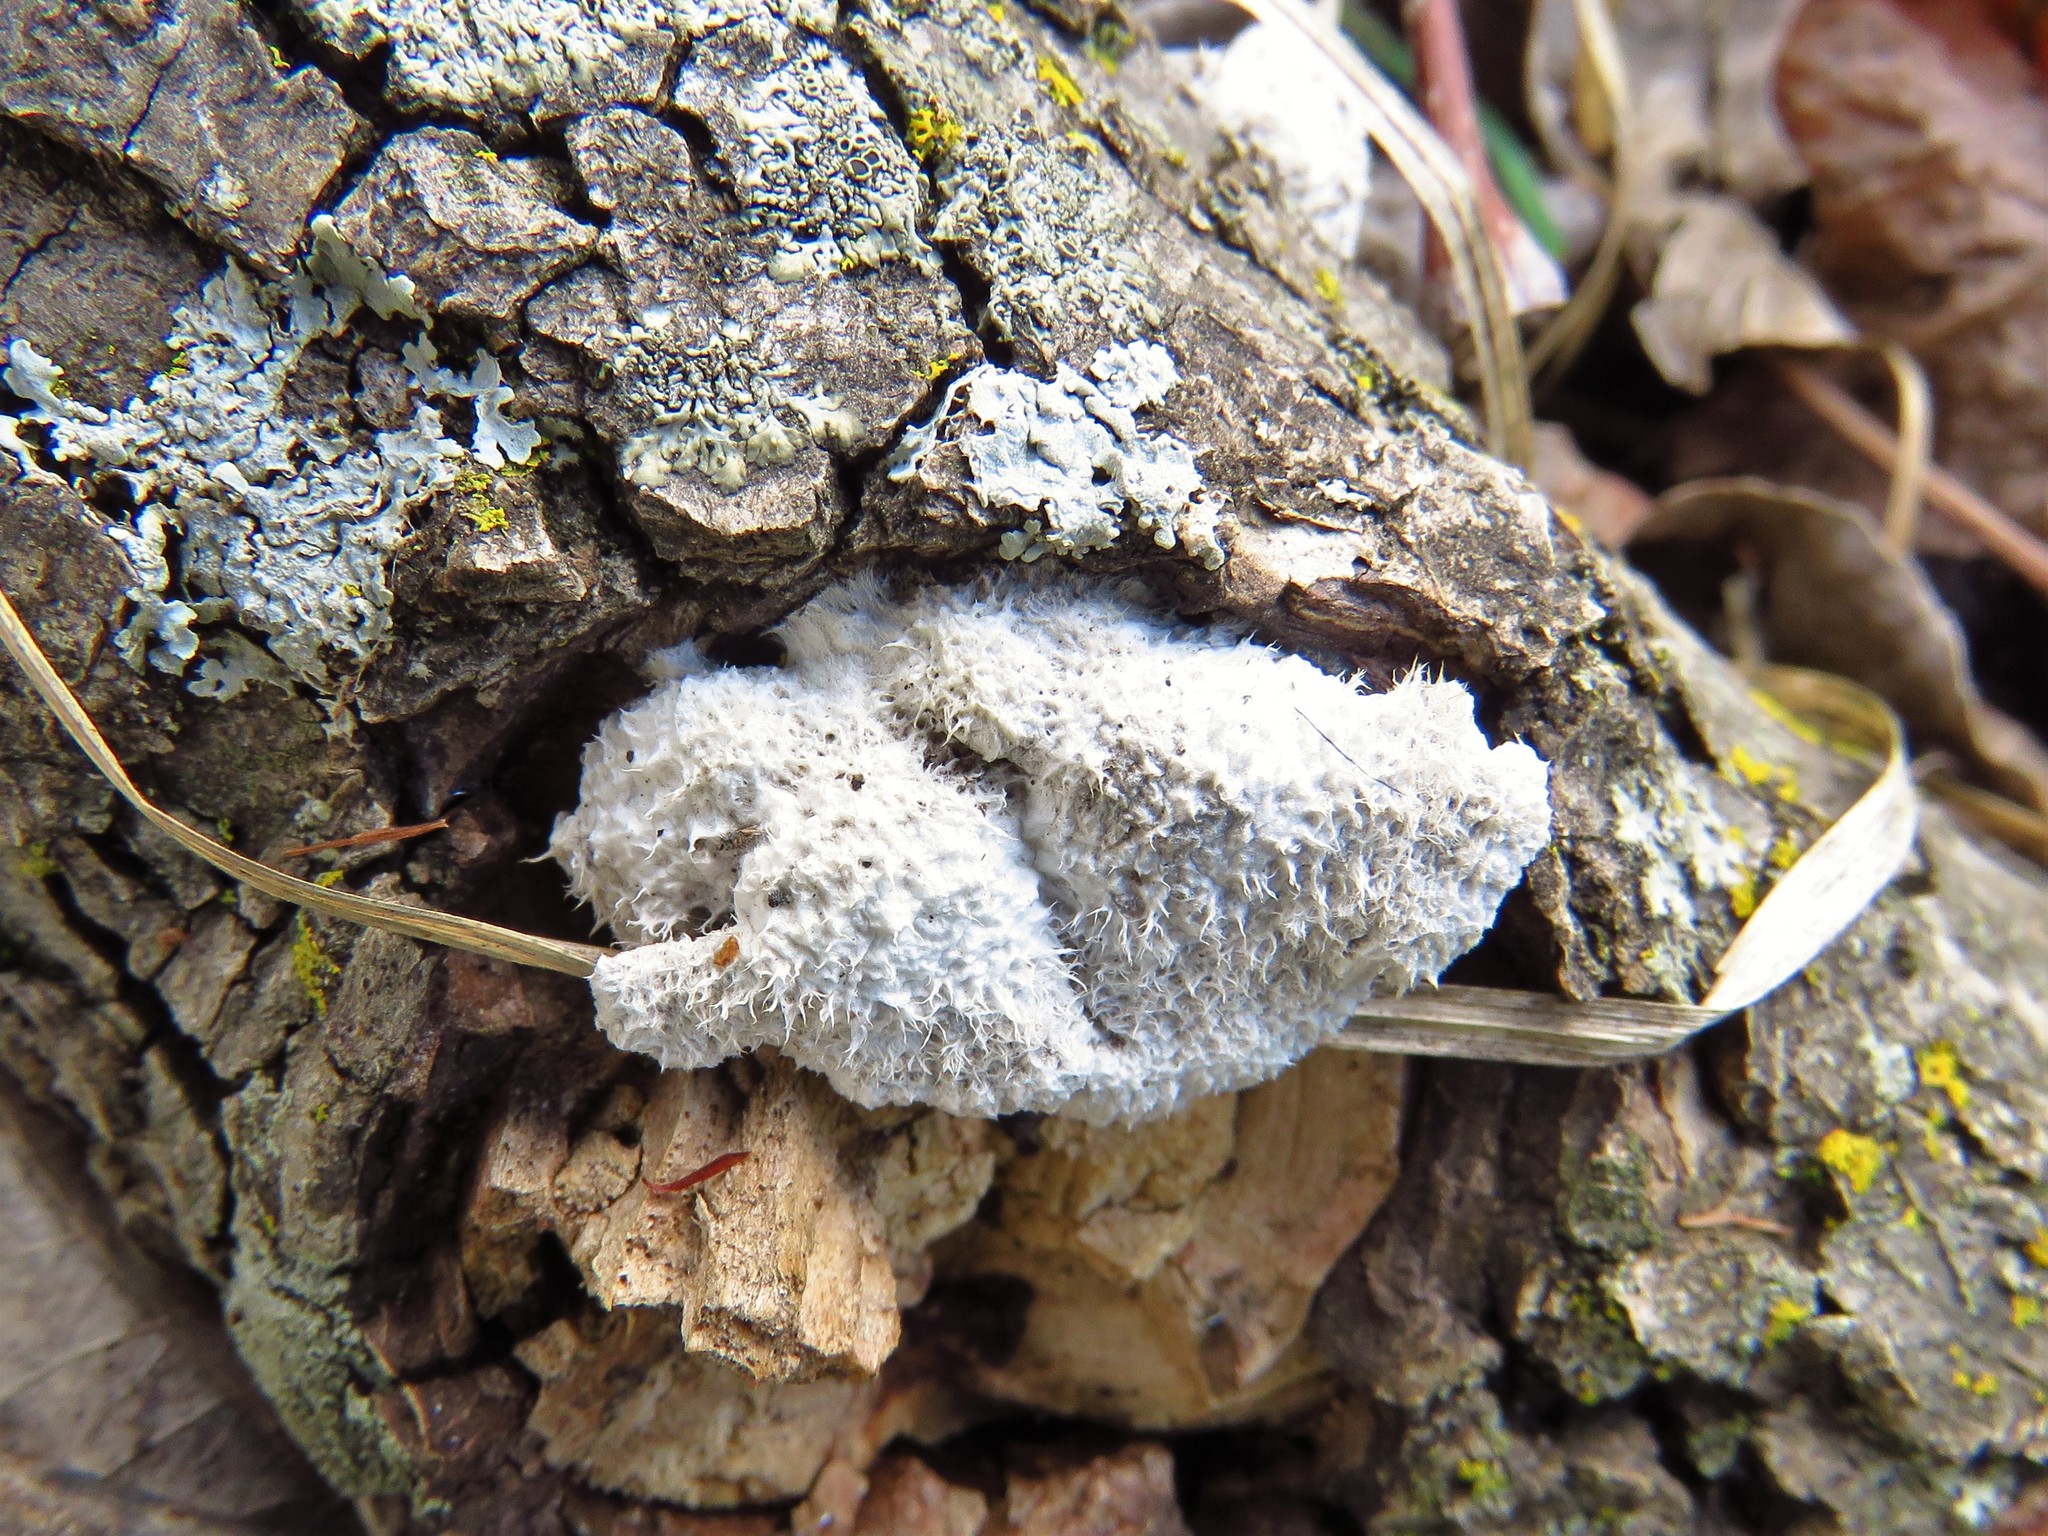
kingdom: Fungi
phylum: Basidiomycota
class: Agaricomycetes
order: Agaricales
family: Schizophyllaceae
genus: Schizophyllum
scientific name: Schizophyllum commune
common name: Common porecrust
